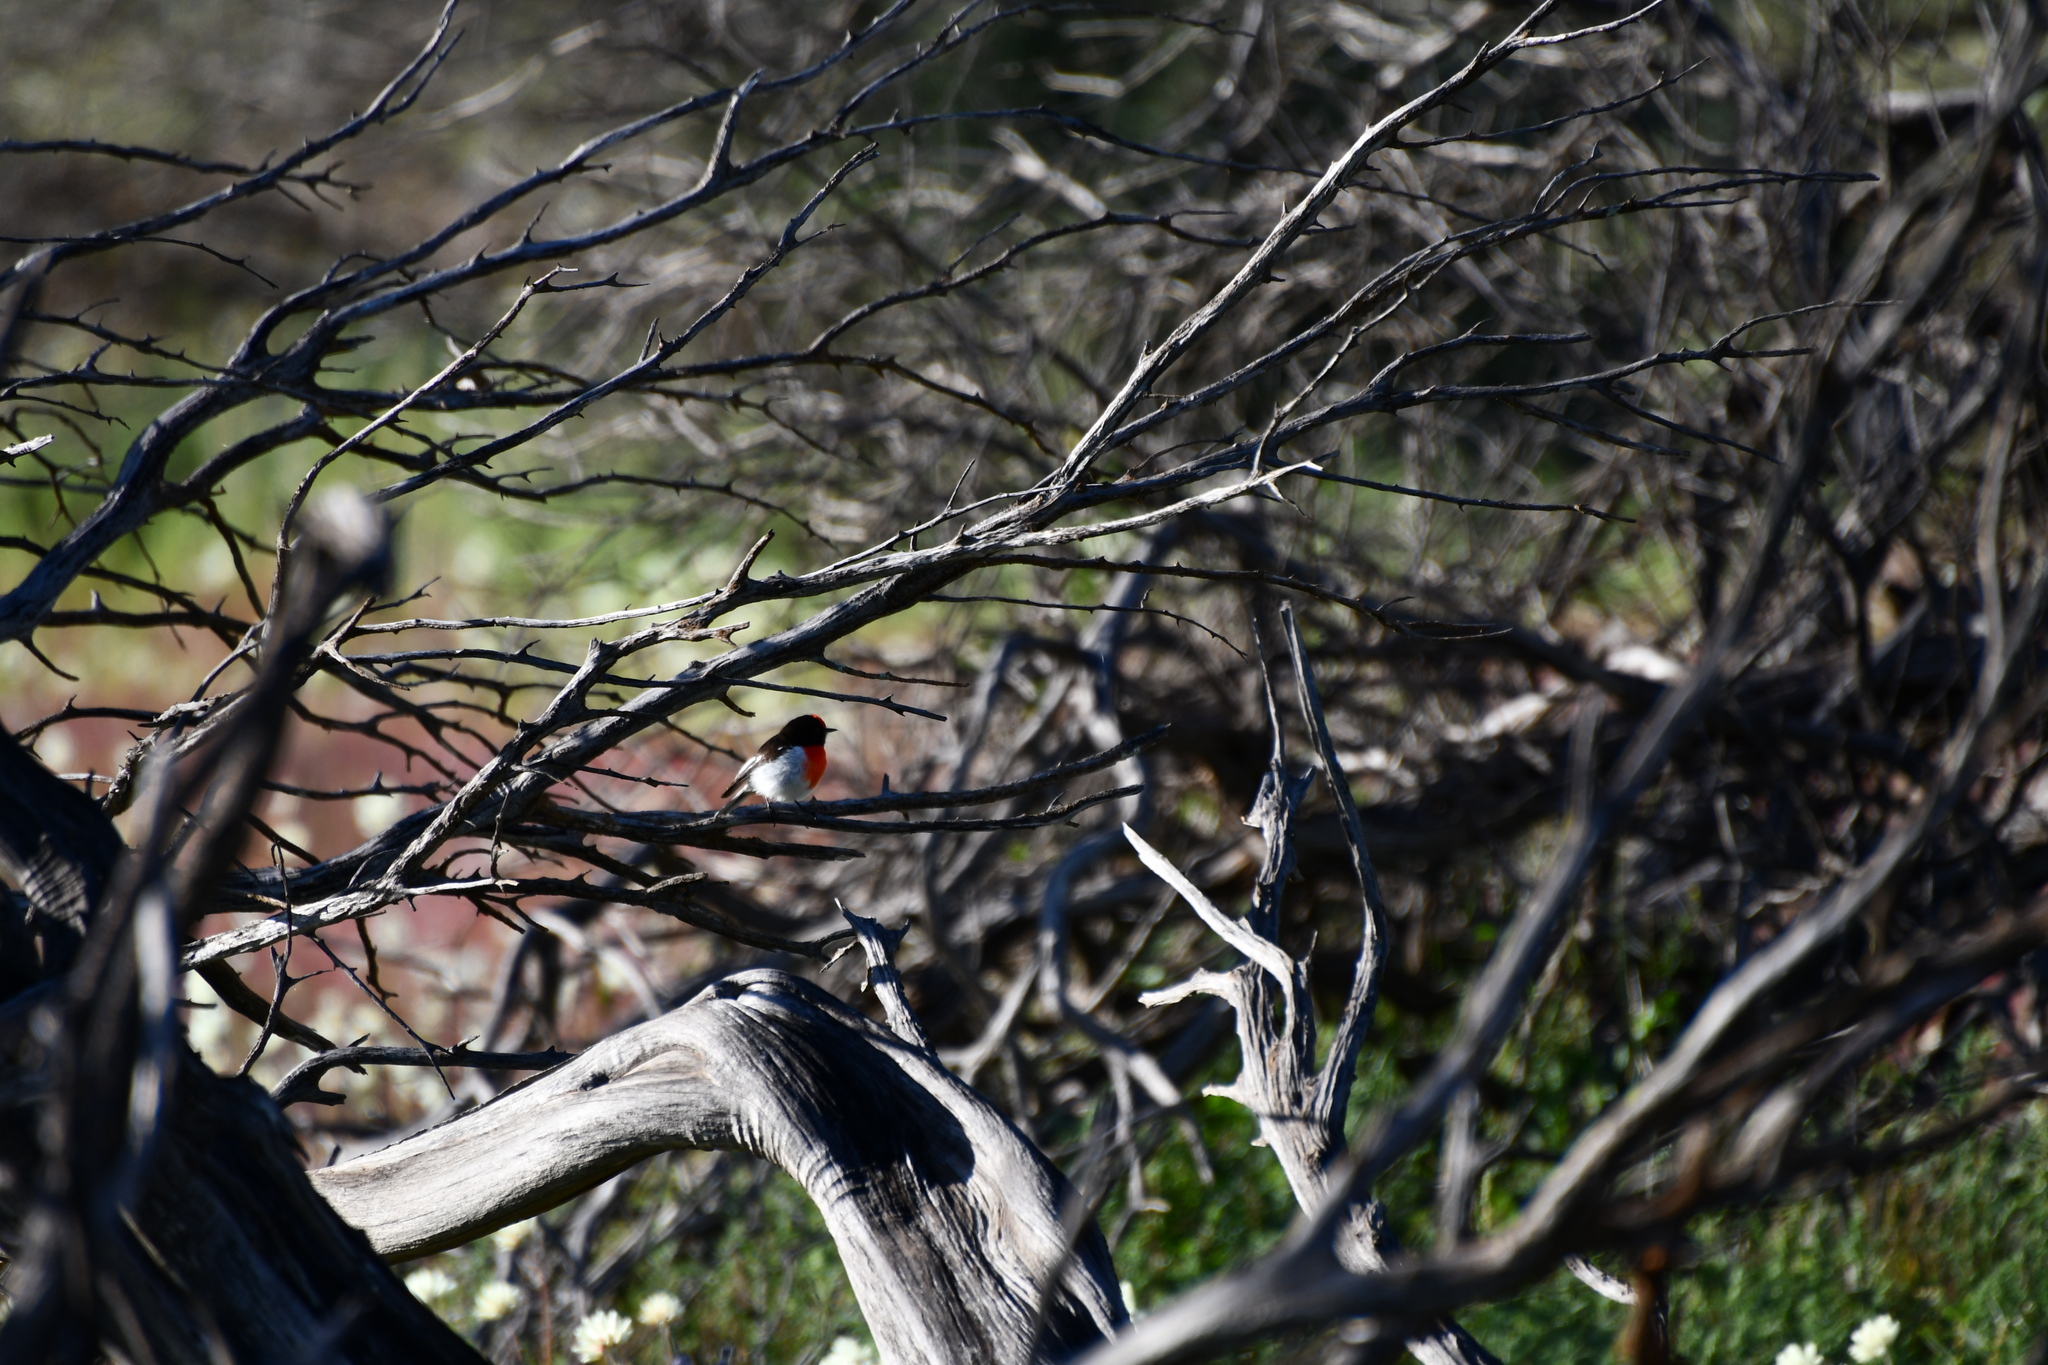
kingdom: Animalia
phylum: Chordata
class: Aves
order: Passeriformes
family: Petroicidae
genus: Petroica
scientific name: Petroica goodenovii
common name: Red-capped robin
